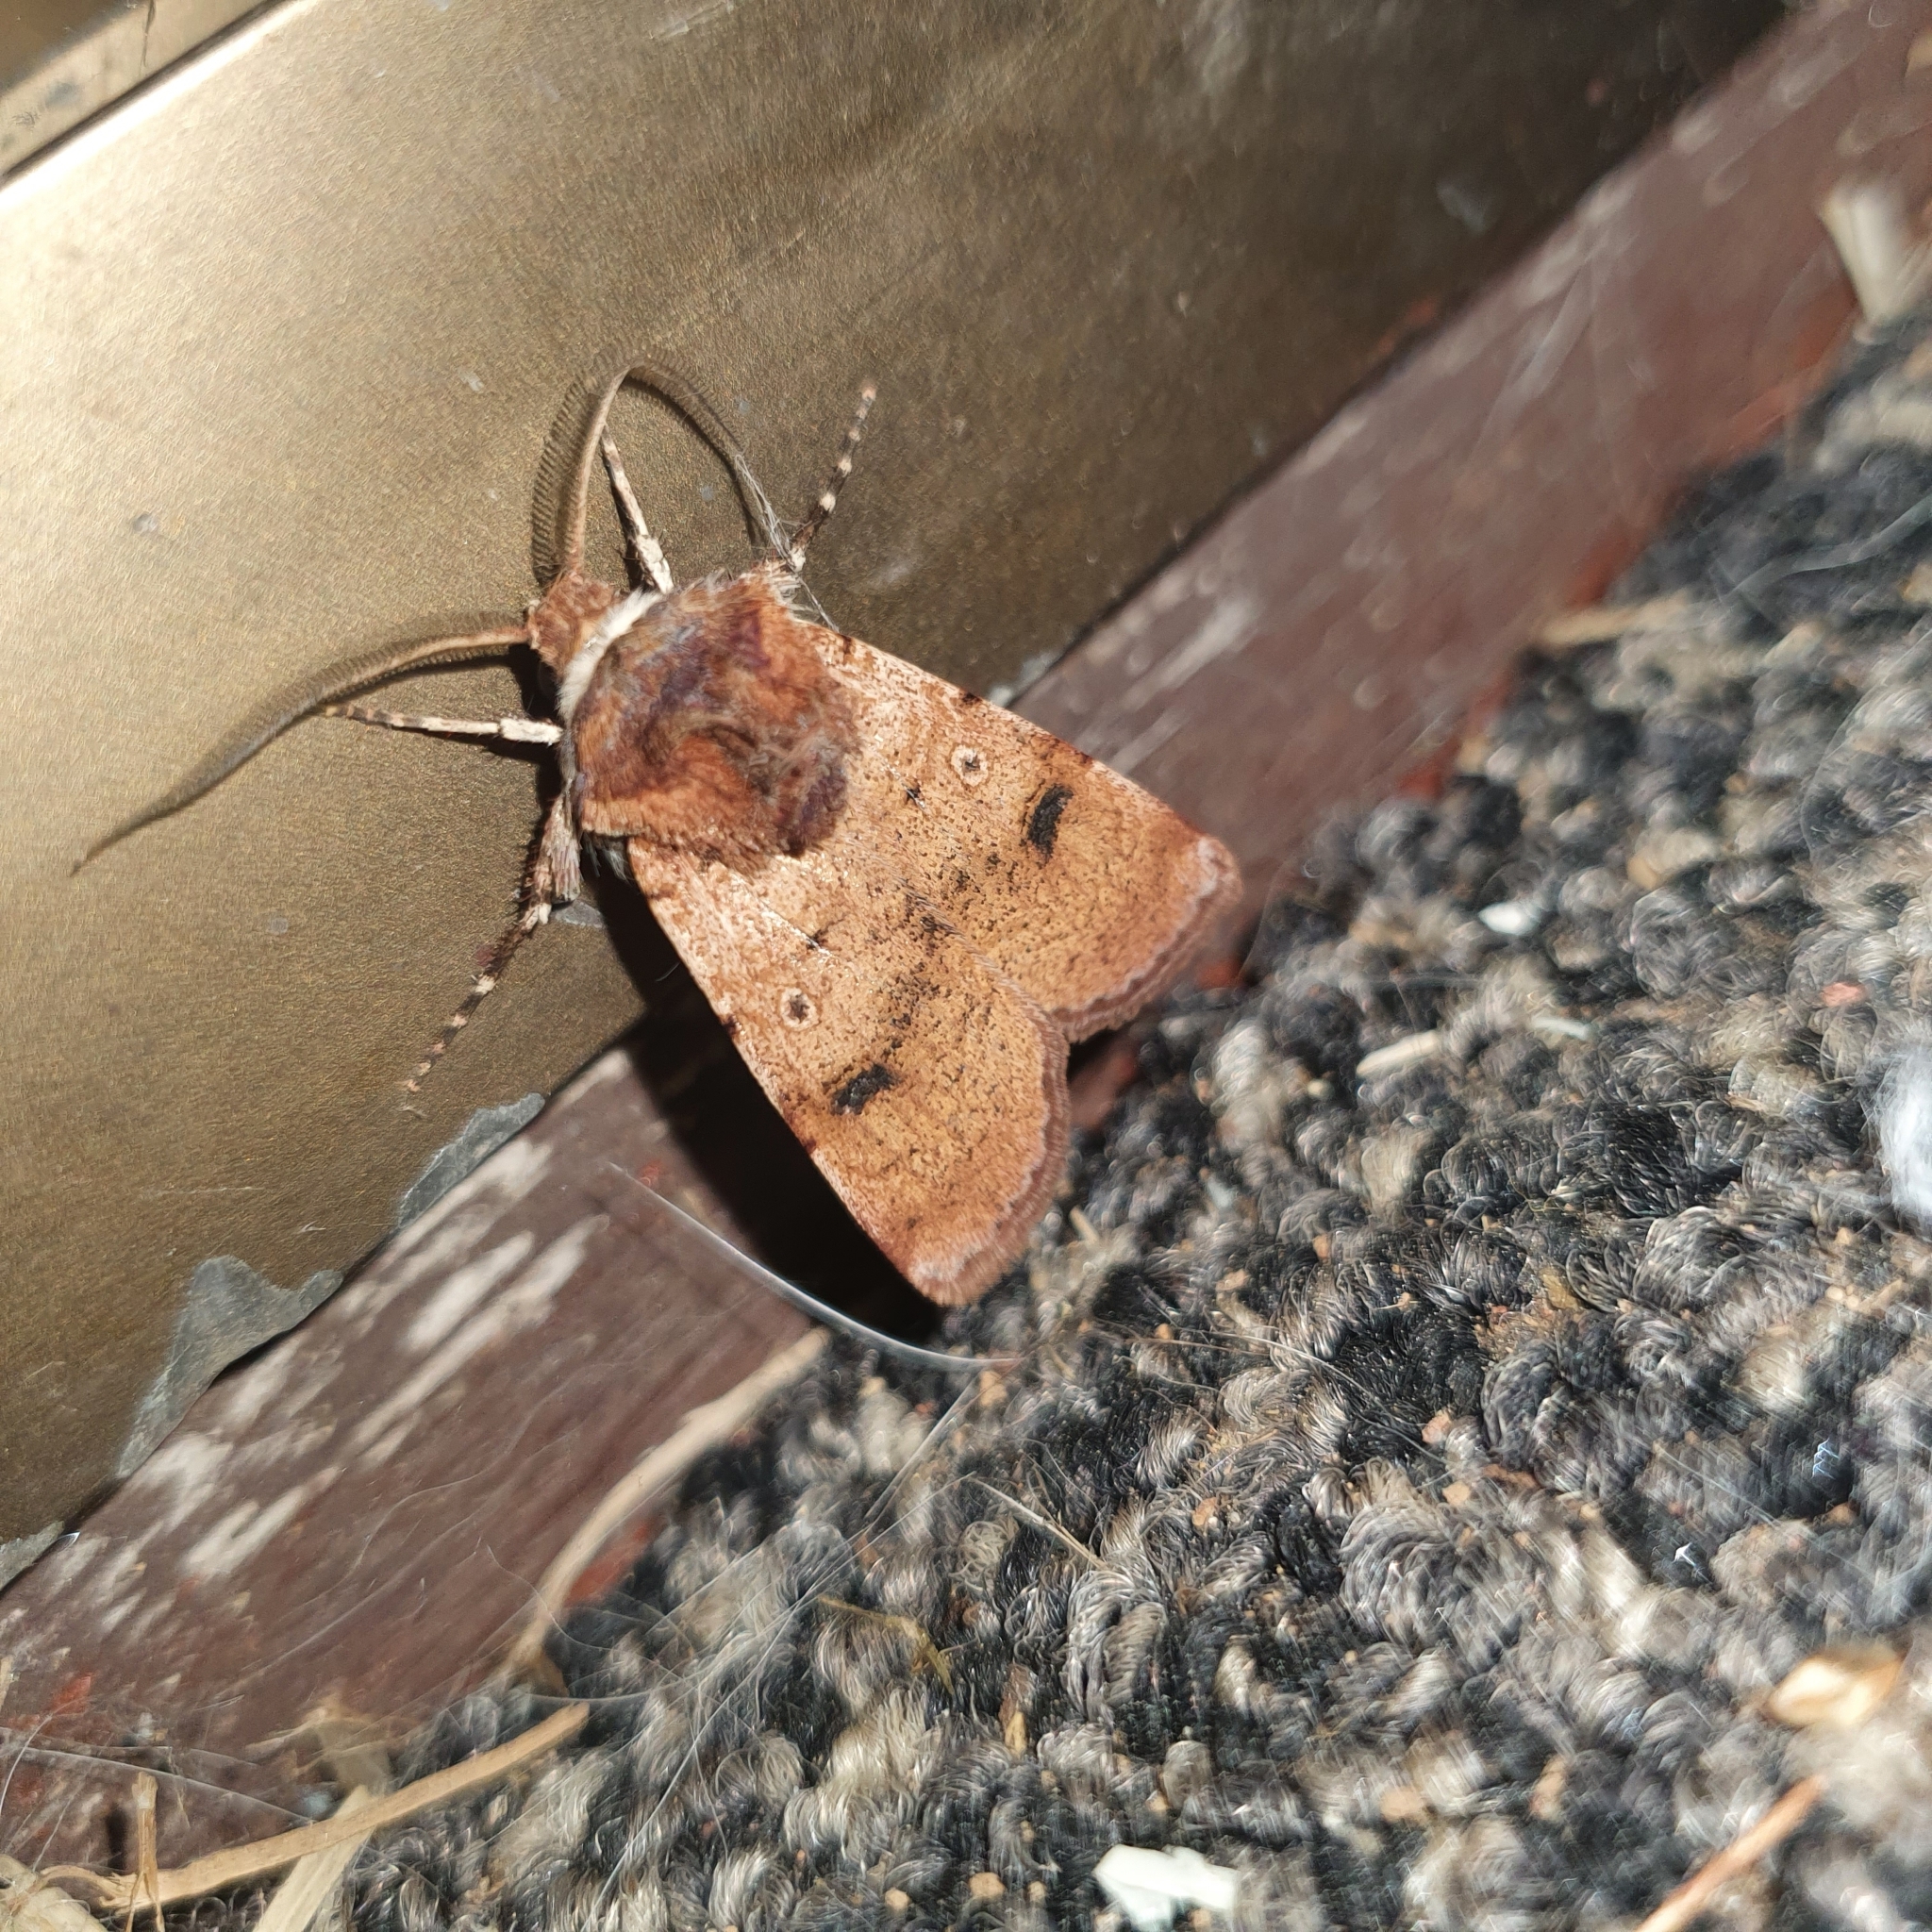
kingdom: Animalia
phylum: Arthropoda
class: Insecta
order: Lepidoptera
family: Noctuidae
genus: Agrotis
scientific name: Agrotis porphyricollis
